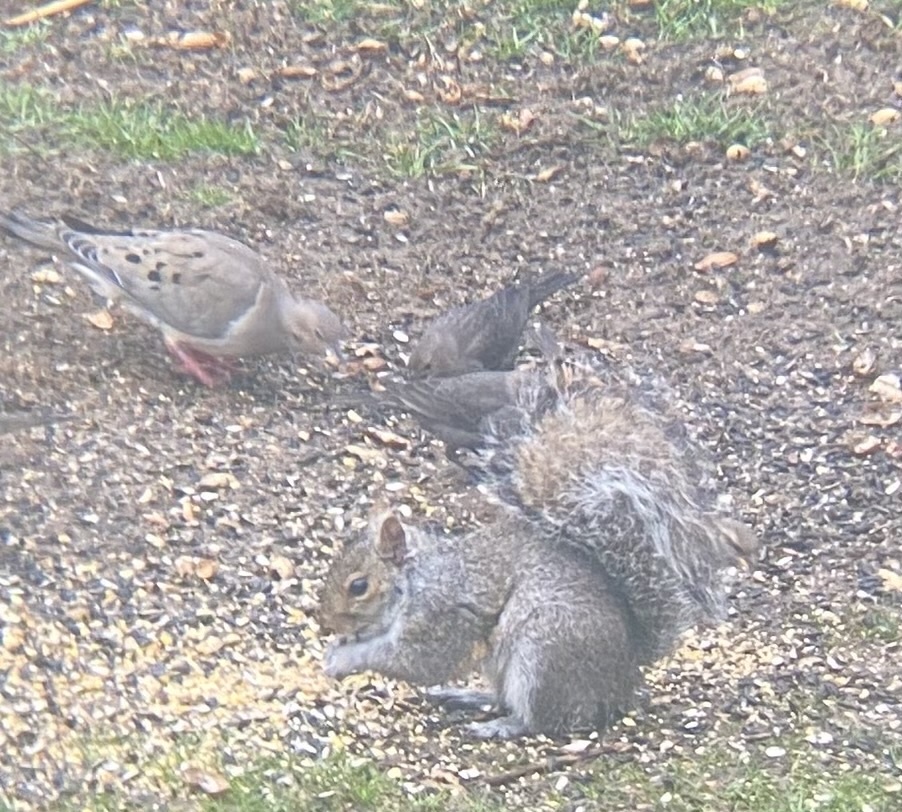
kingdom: Animalia
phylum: Chordata
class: Aves
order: Passeriformes
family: Icteridae
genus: Molothrus
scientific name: Molothrus ater
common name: Brown-headed cowbird
